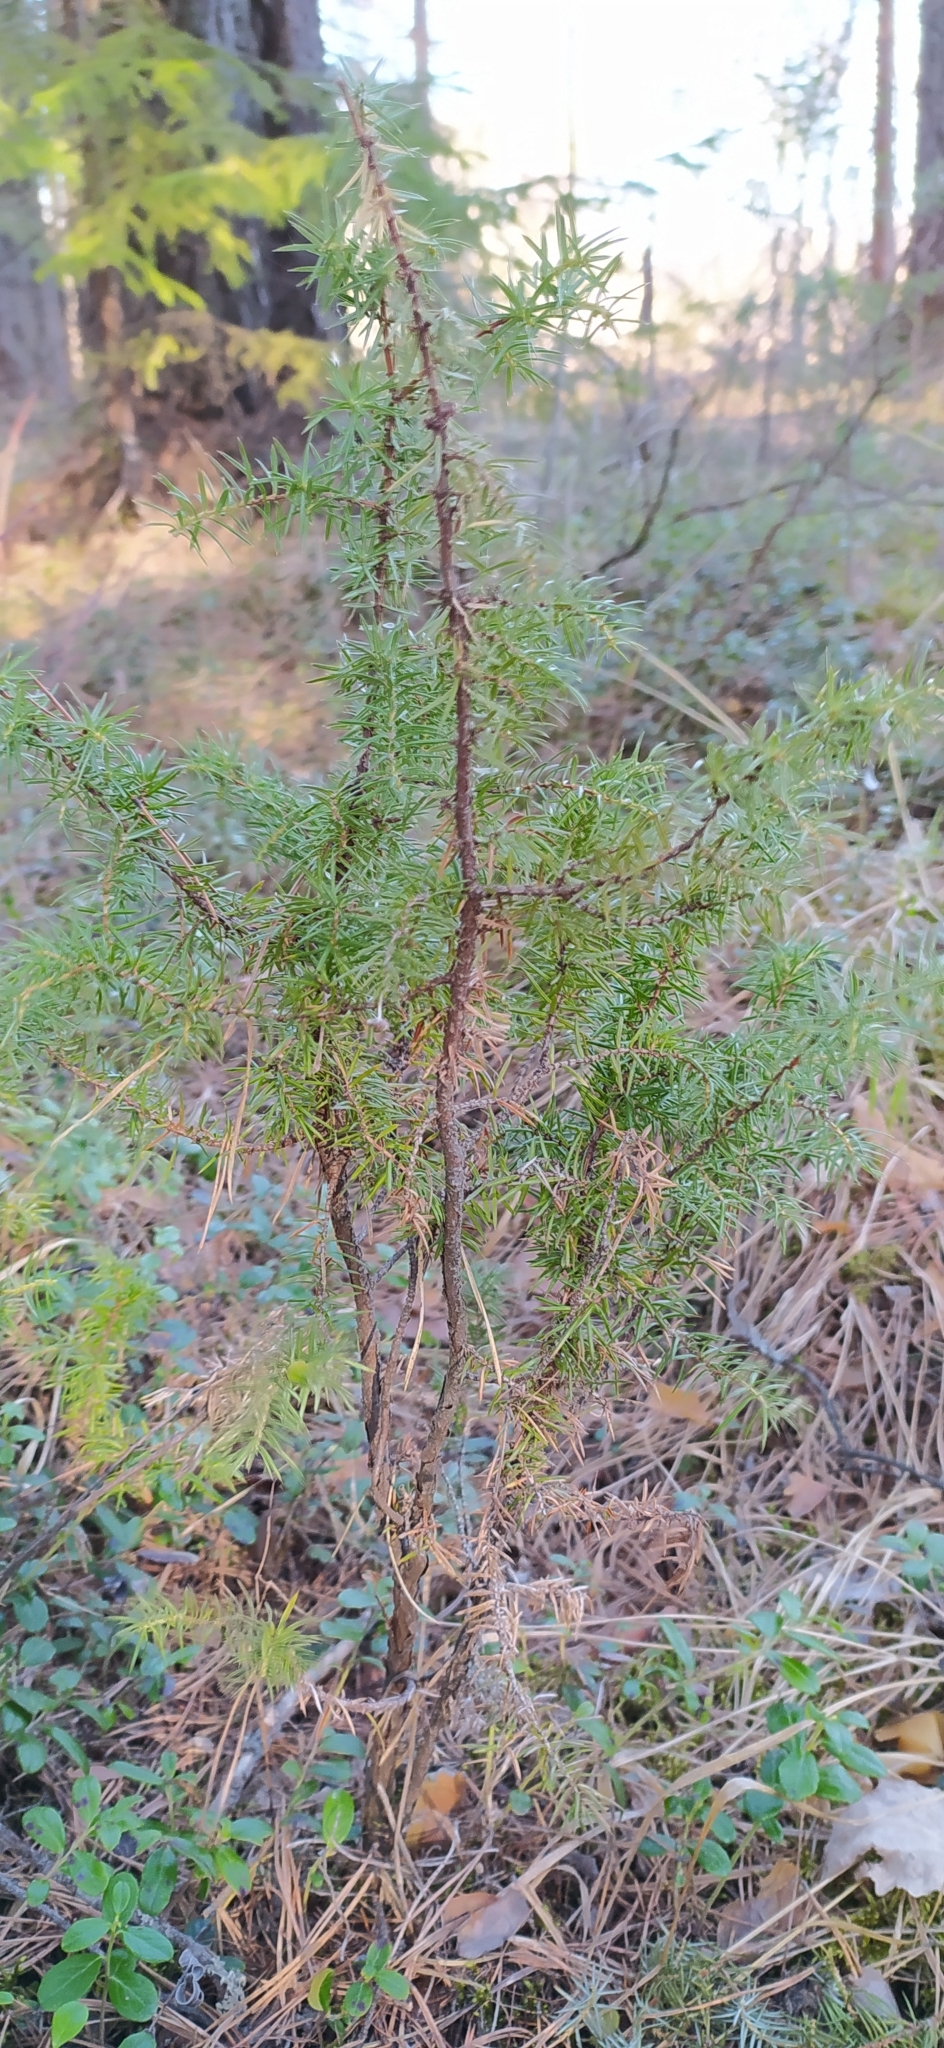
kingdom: Plantae
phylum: Tracheophyta
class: Pinopsida
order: Pinales
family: Cupressaceae
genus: Juniperus
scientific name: Juniperus communis
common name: Common juniper
